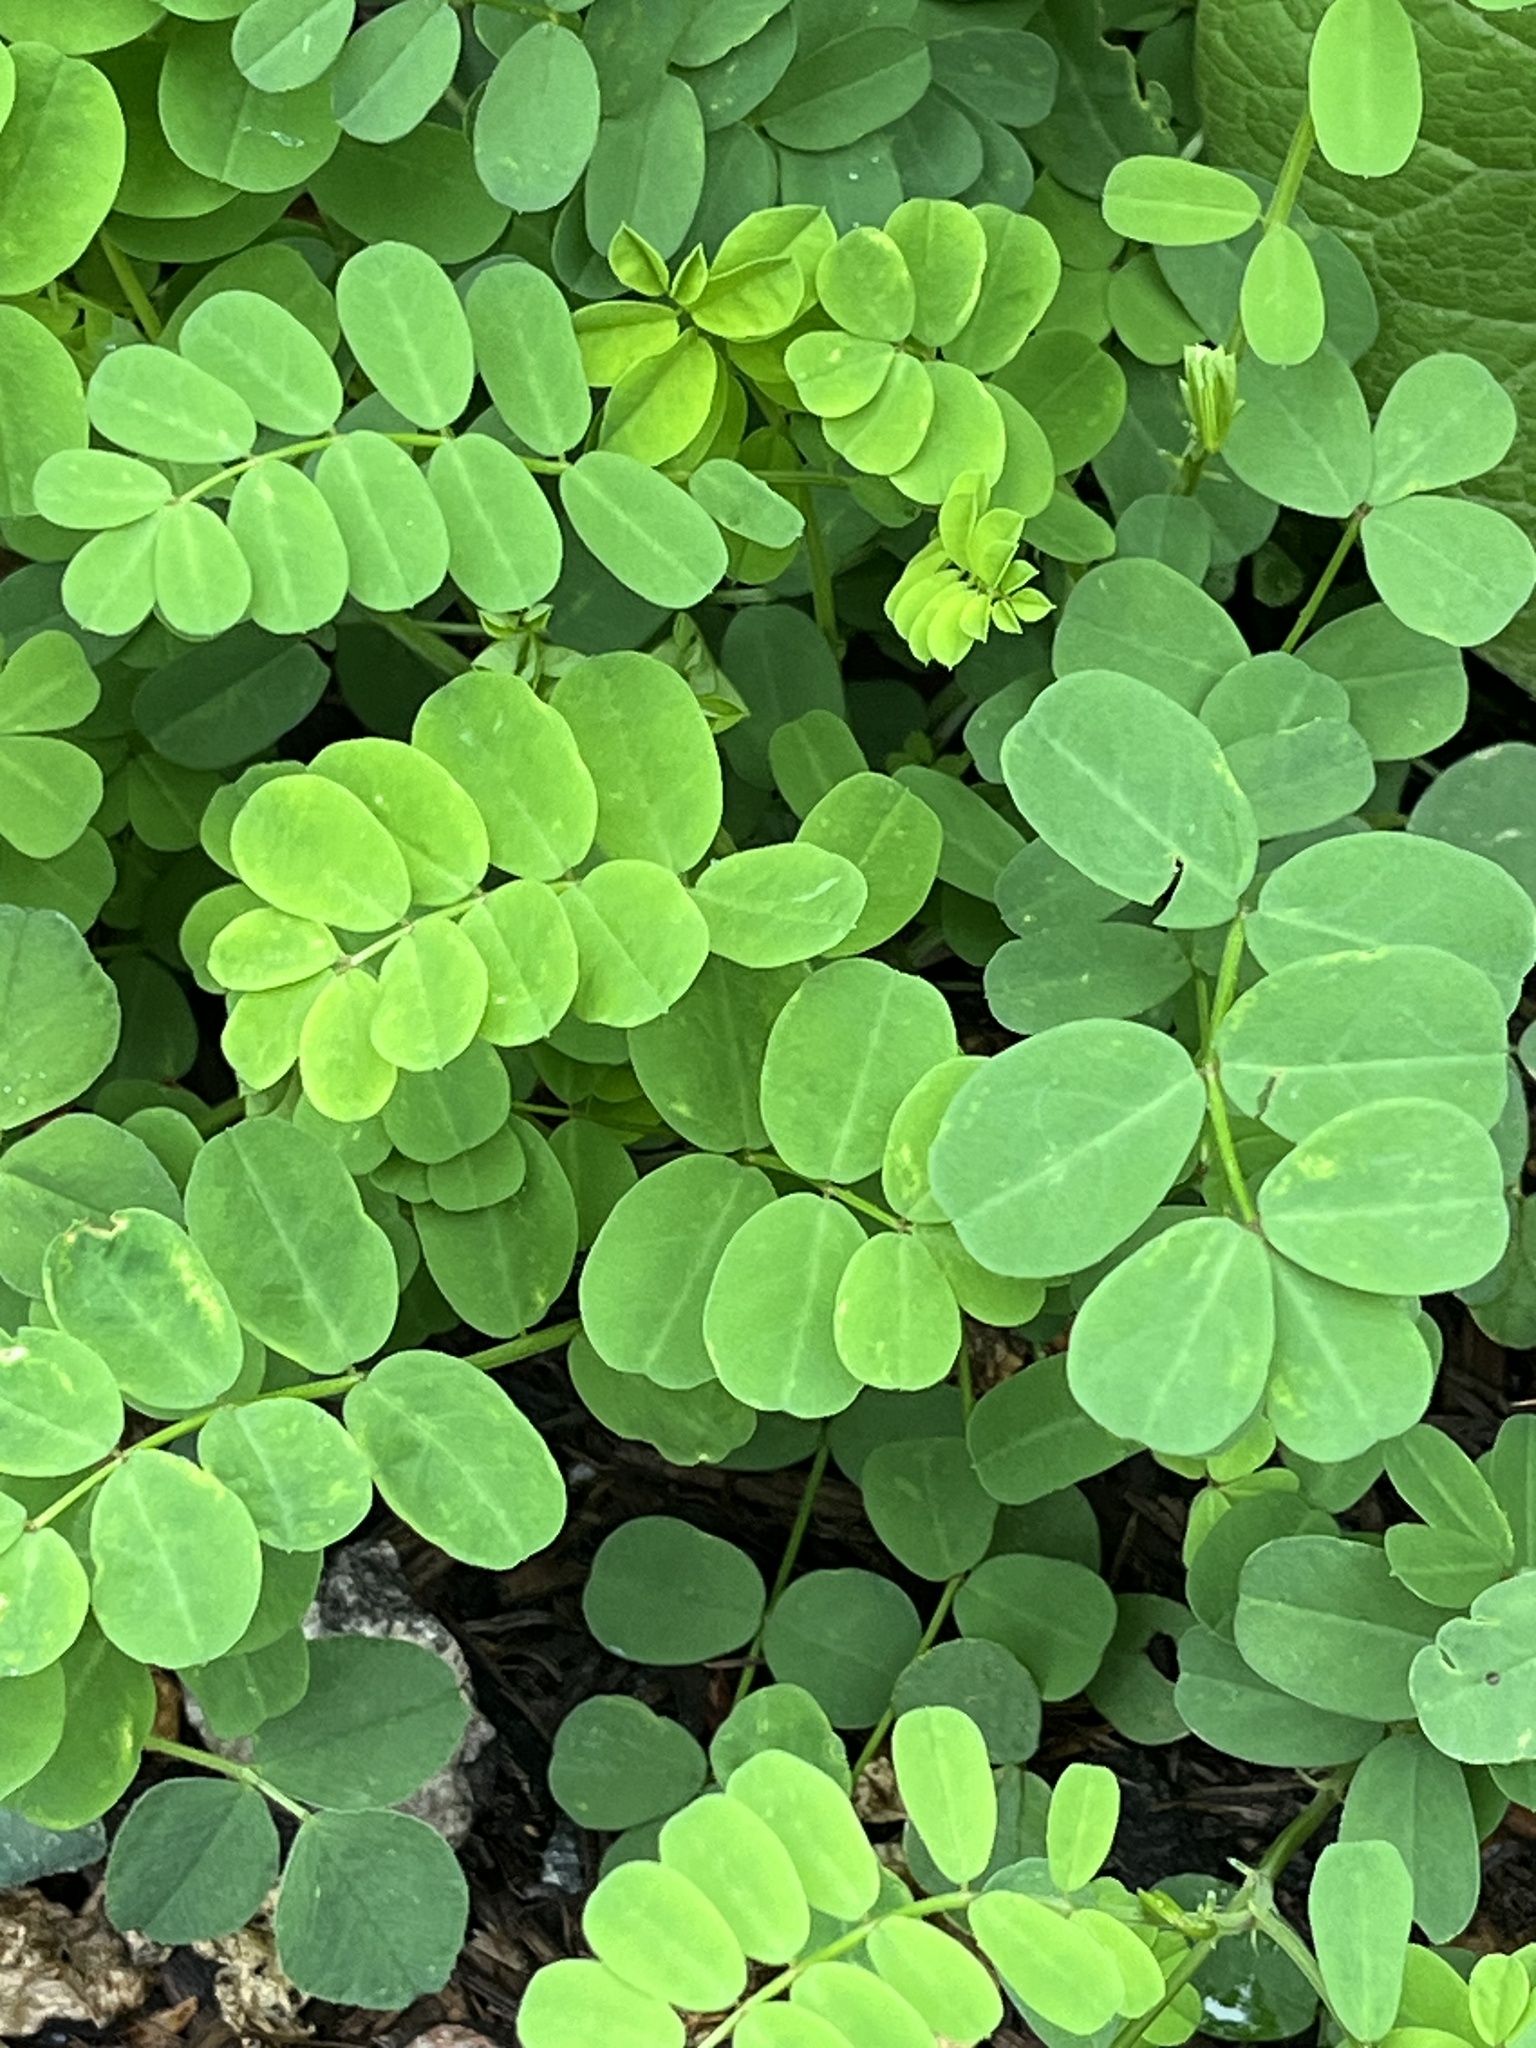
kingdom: Plantae
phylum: Tracheophyta
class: Magnoliopsida
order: Fabales
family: Fabaceae
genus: Coronilla
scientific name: Coronilla varia
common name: Crownvetch
